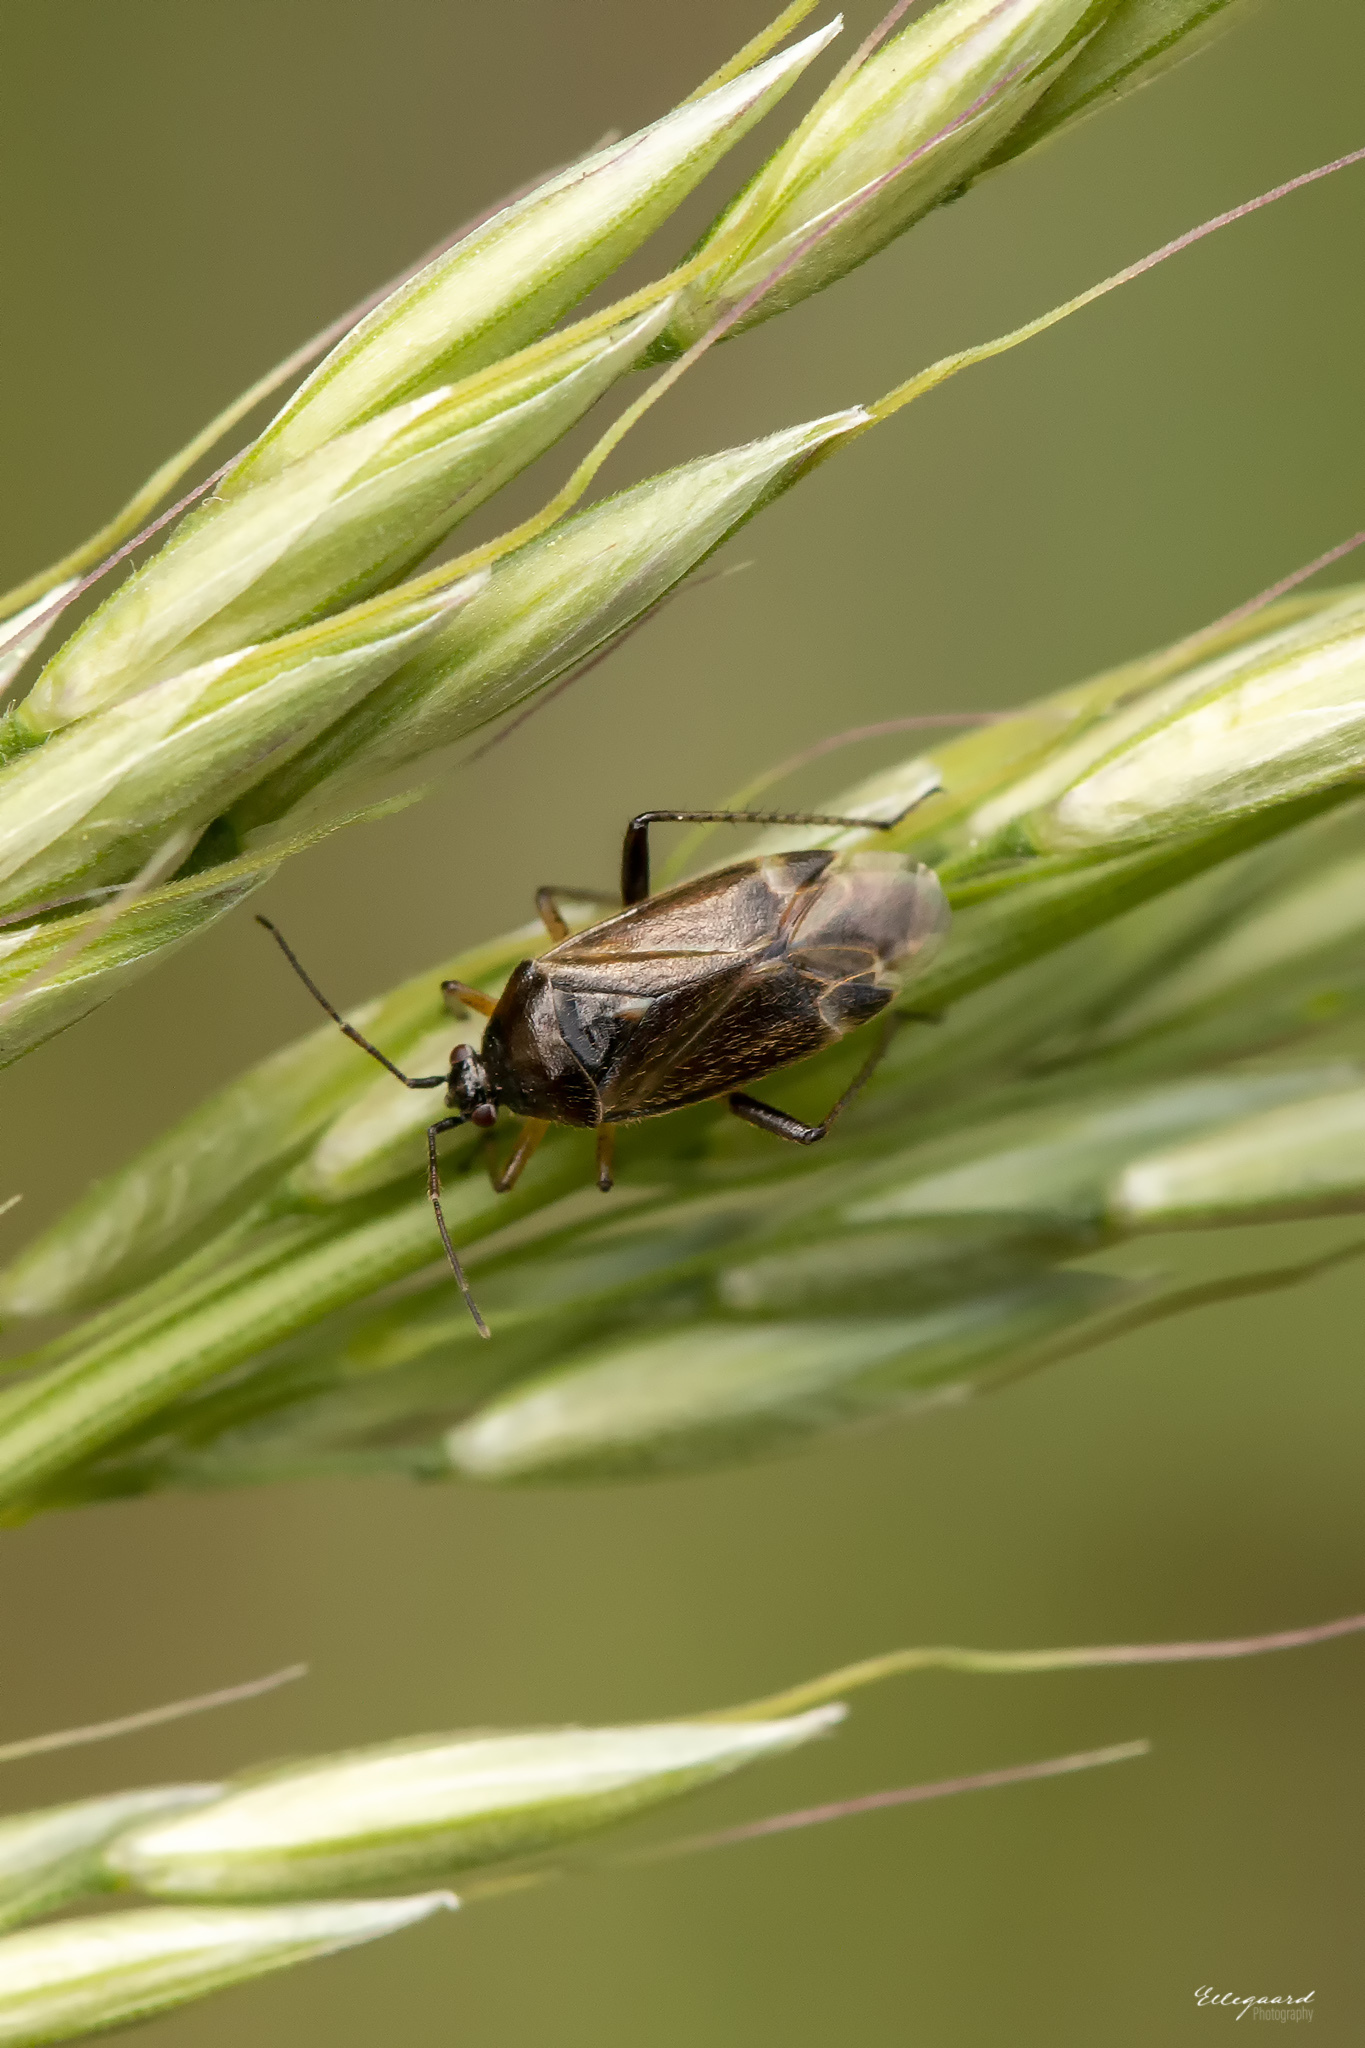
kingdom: Animalia
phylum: Arthropoda
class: Insecta
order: Hemiptera
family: Miridae
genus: Harpocera
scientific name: Harpocera thoracica
